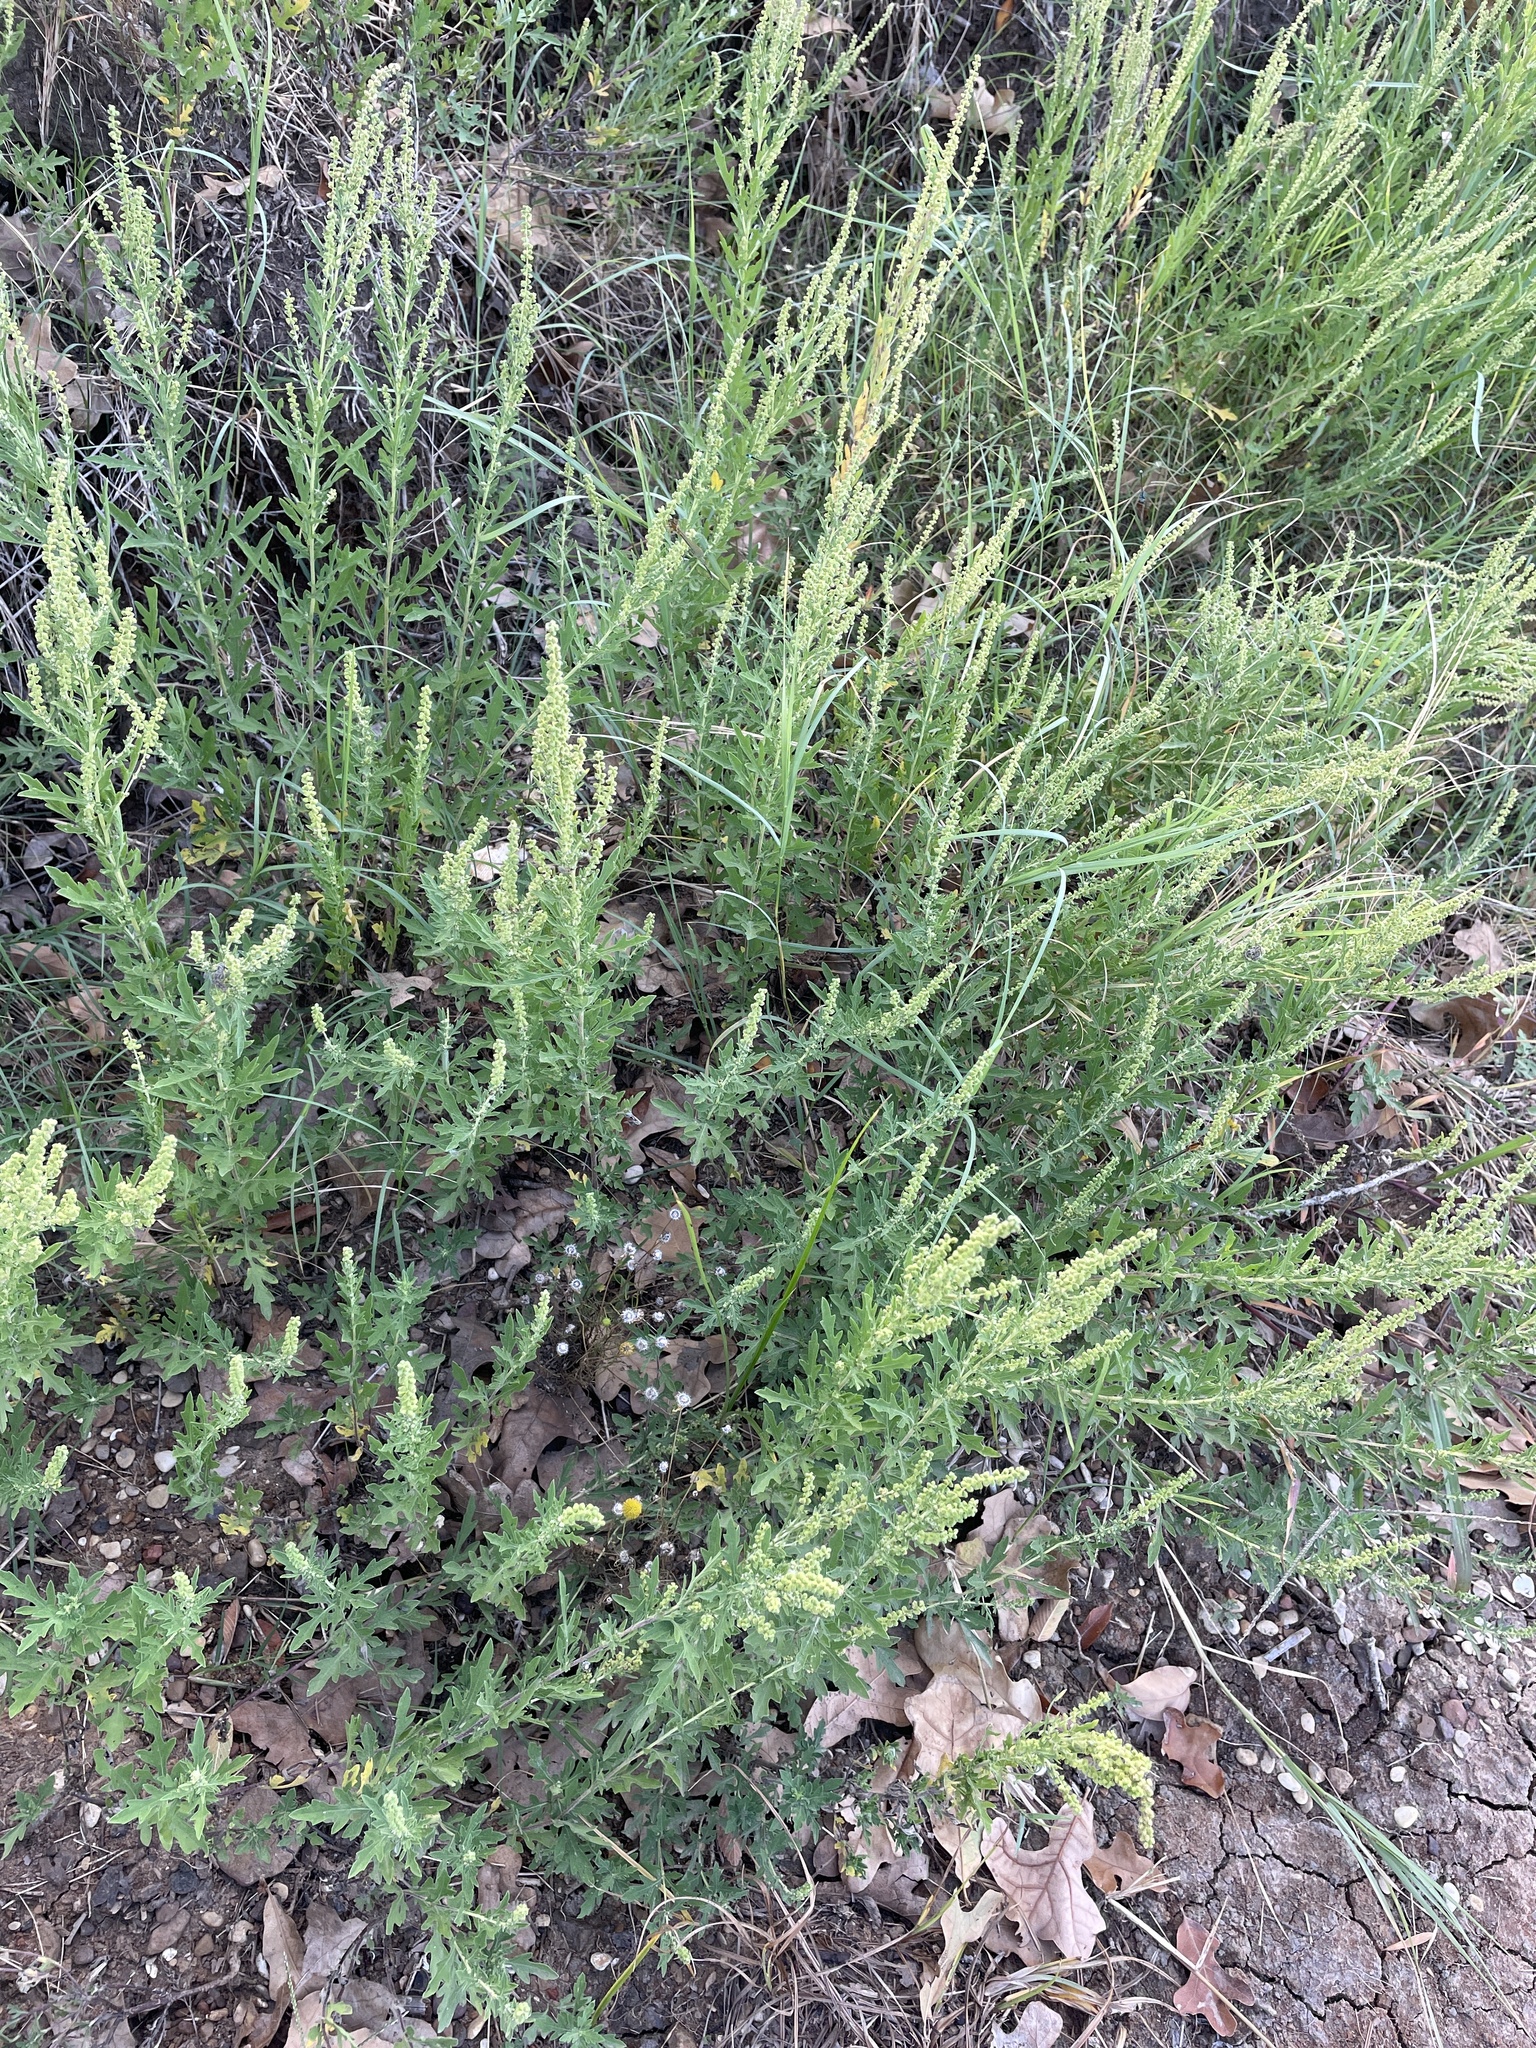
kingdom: Plantae
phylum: Tracheophyta
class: Magnoliopsida
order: Asterales
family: Asteraceae
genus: Ambrosia
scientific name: Ambrosia psilostachya
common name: Perennial ragweed
